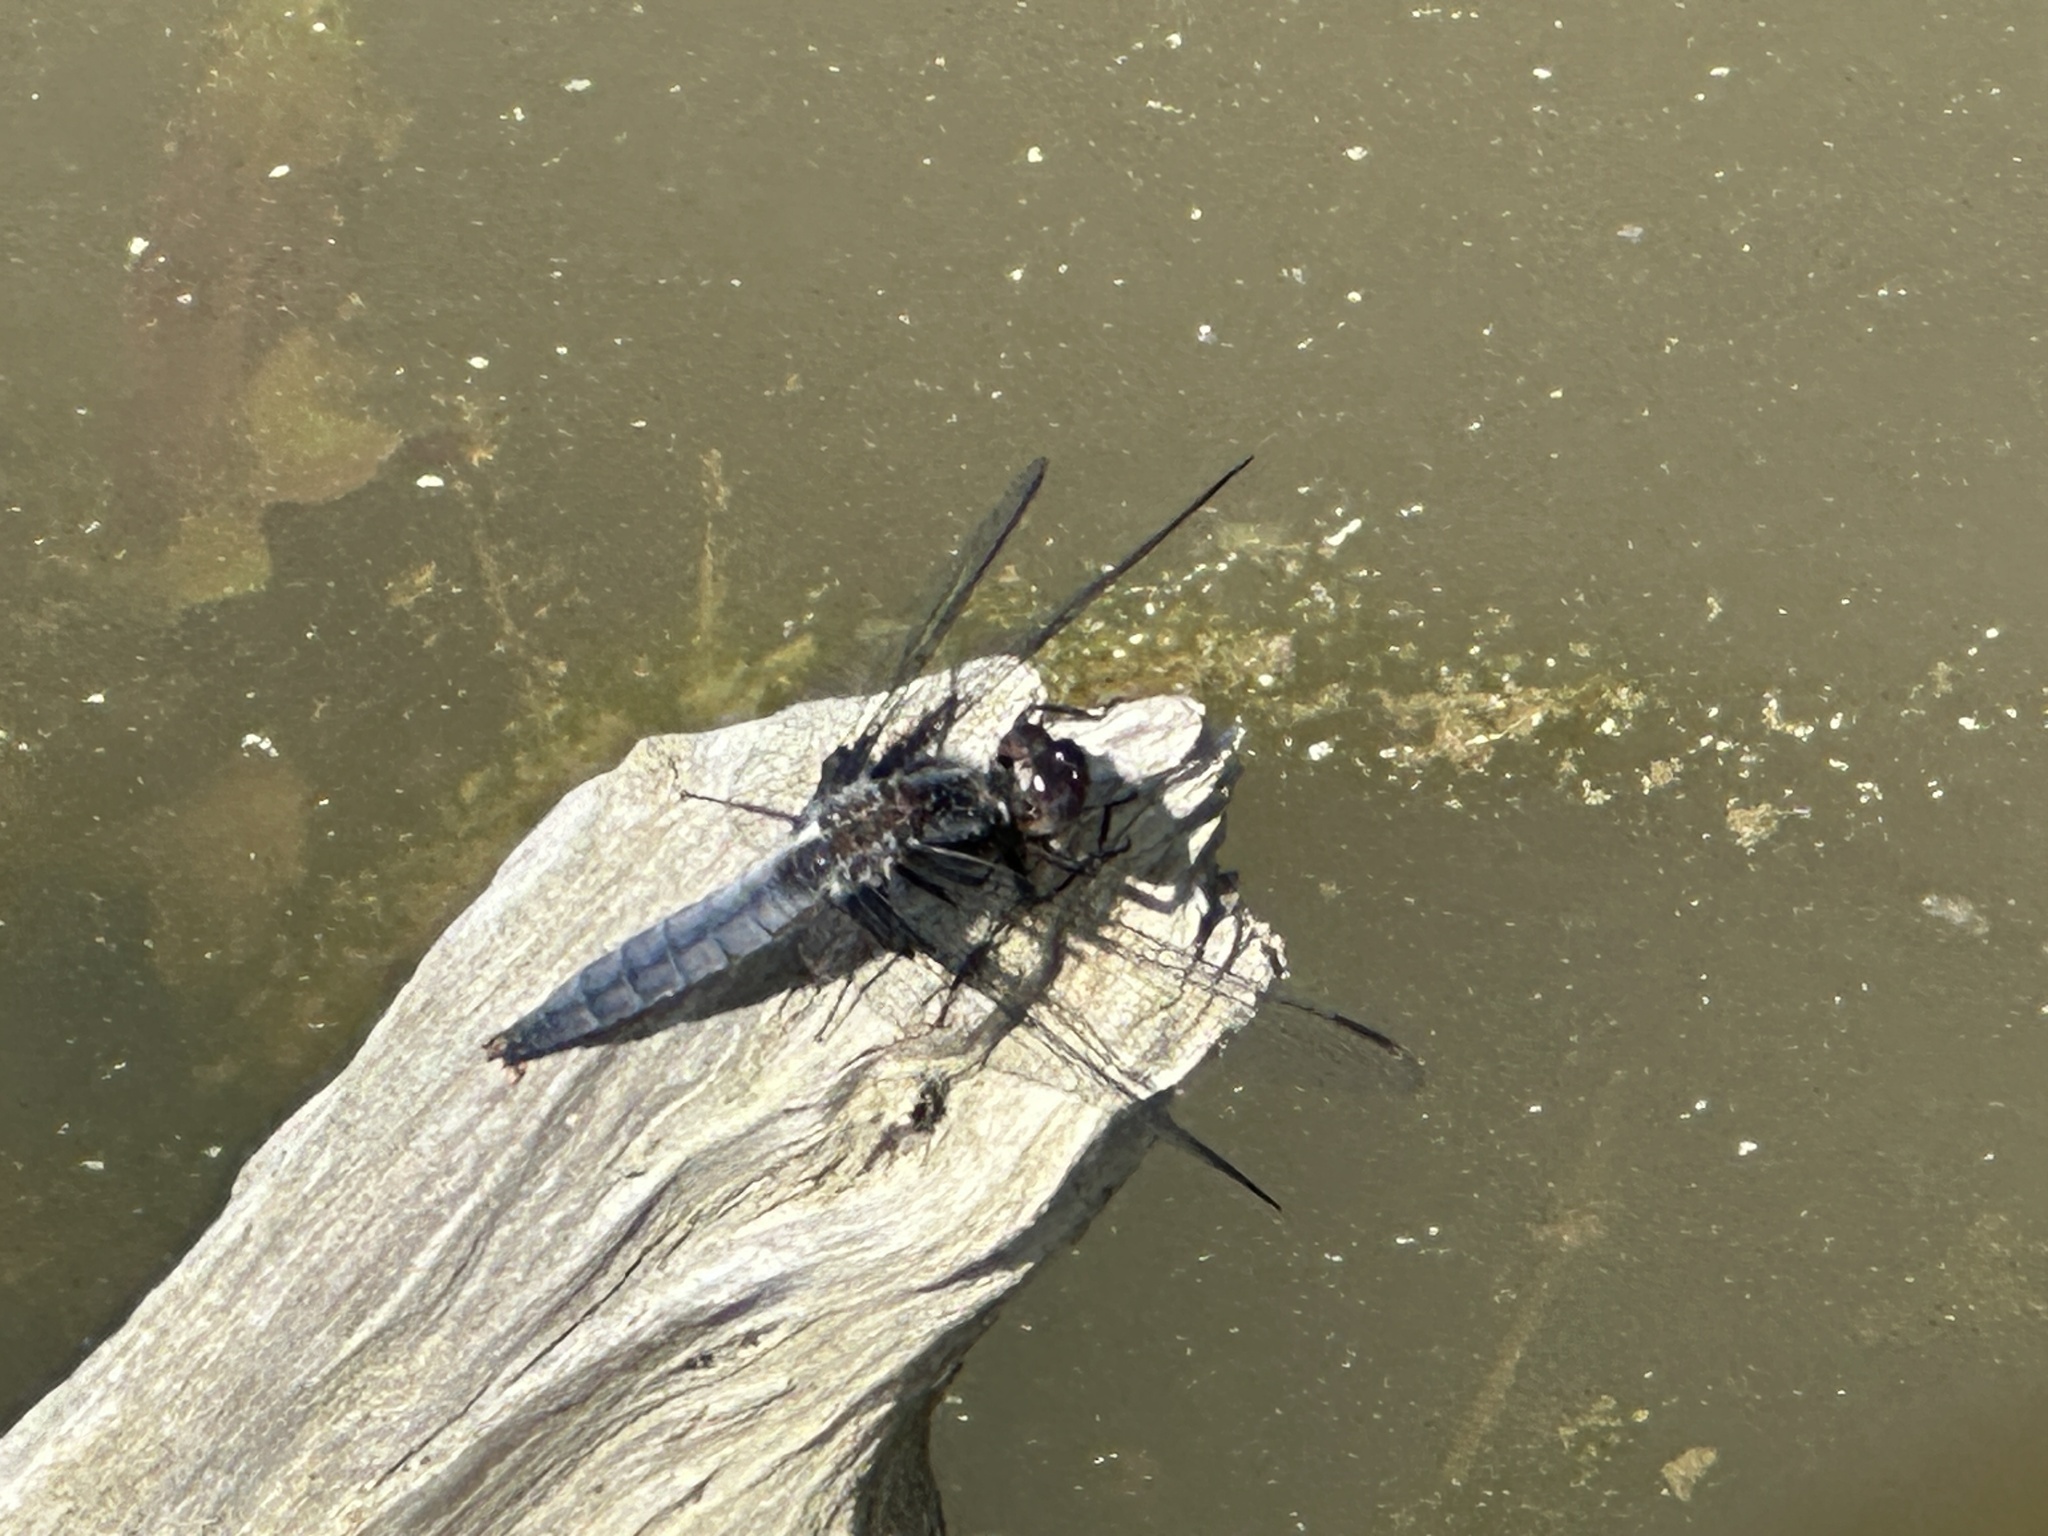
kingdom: Animalia
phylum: Arthropoda
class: Insecta
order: Odonata
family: Libellulidae
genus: Ladona
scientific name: Ladona deplanata
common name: Blue corporal
